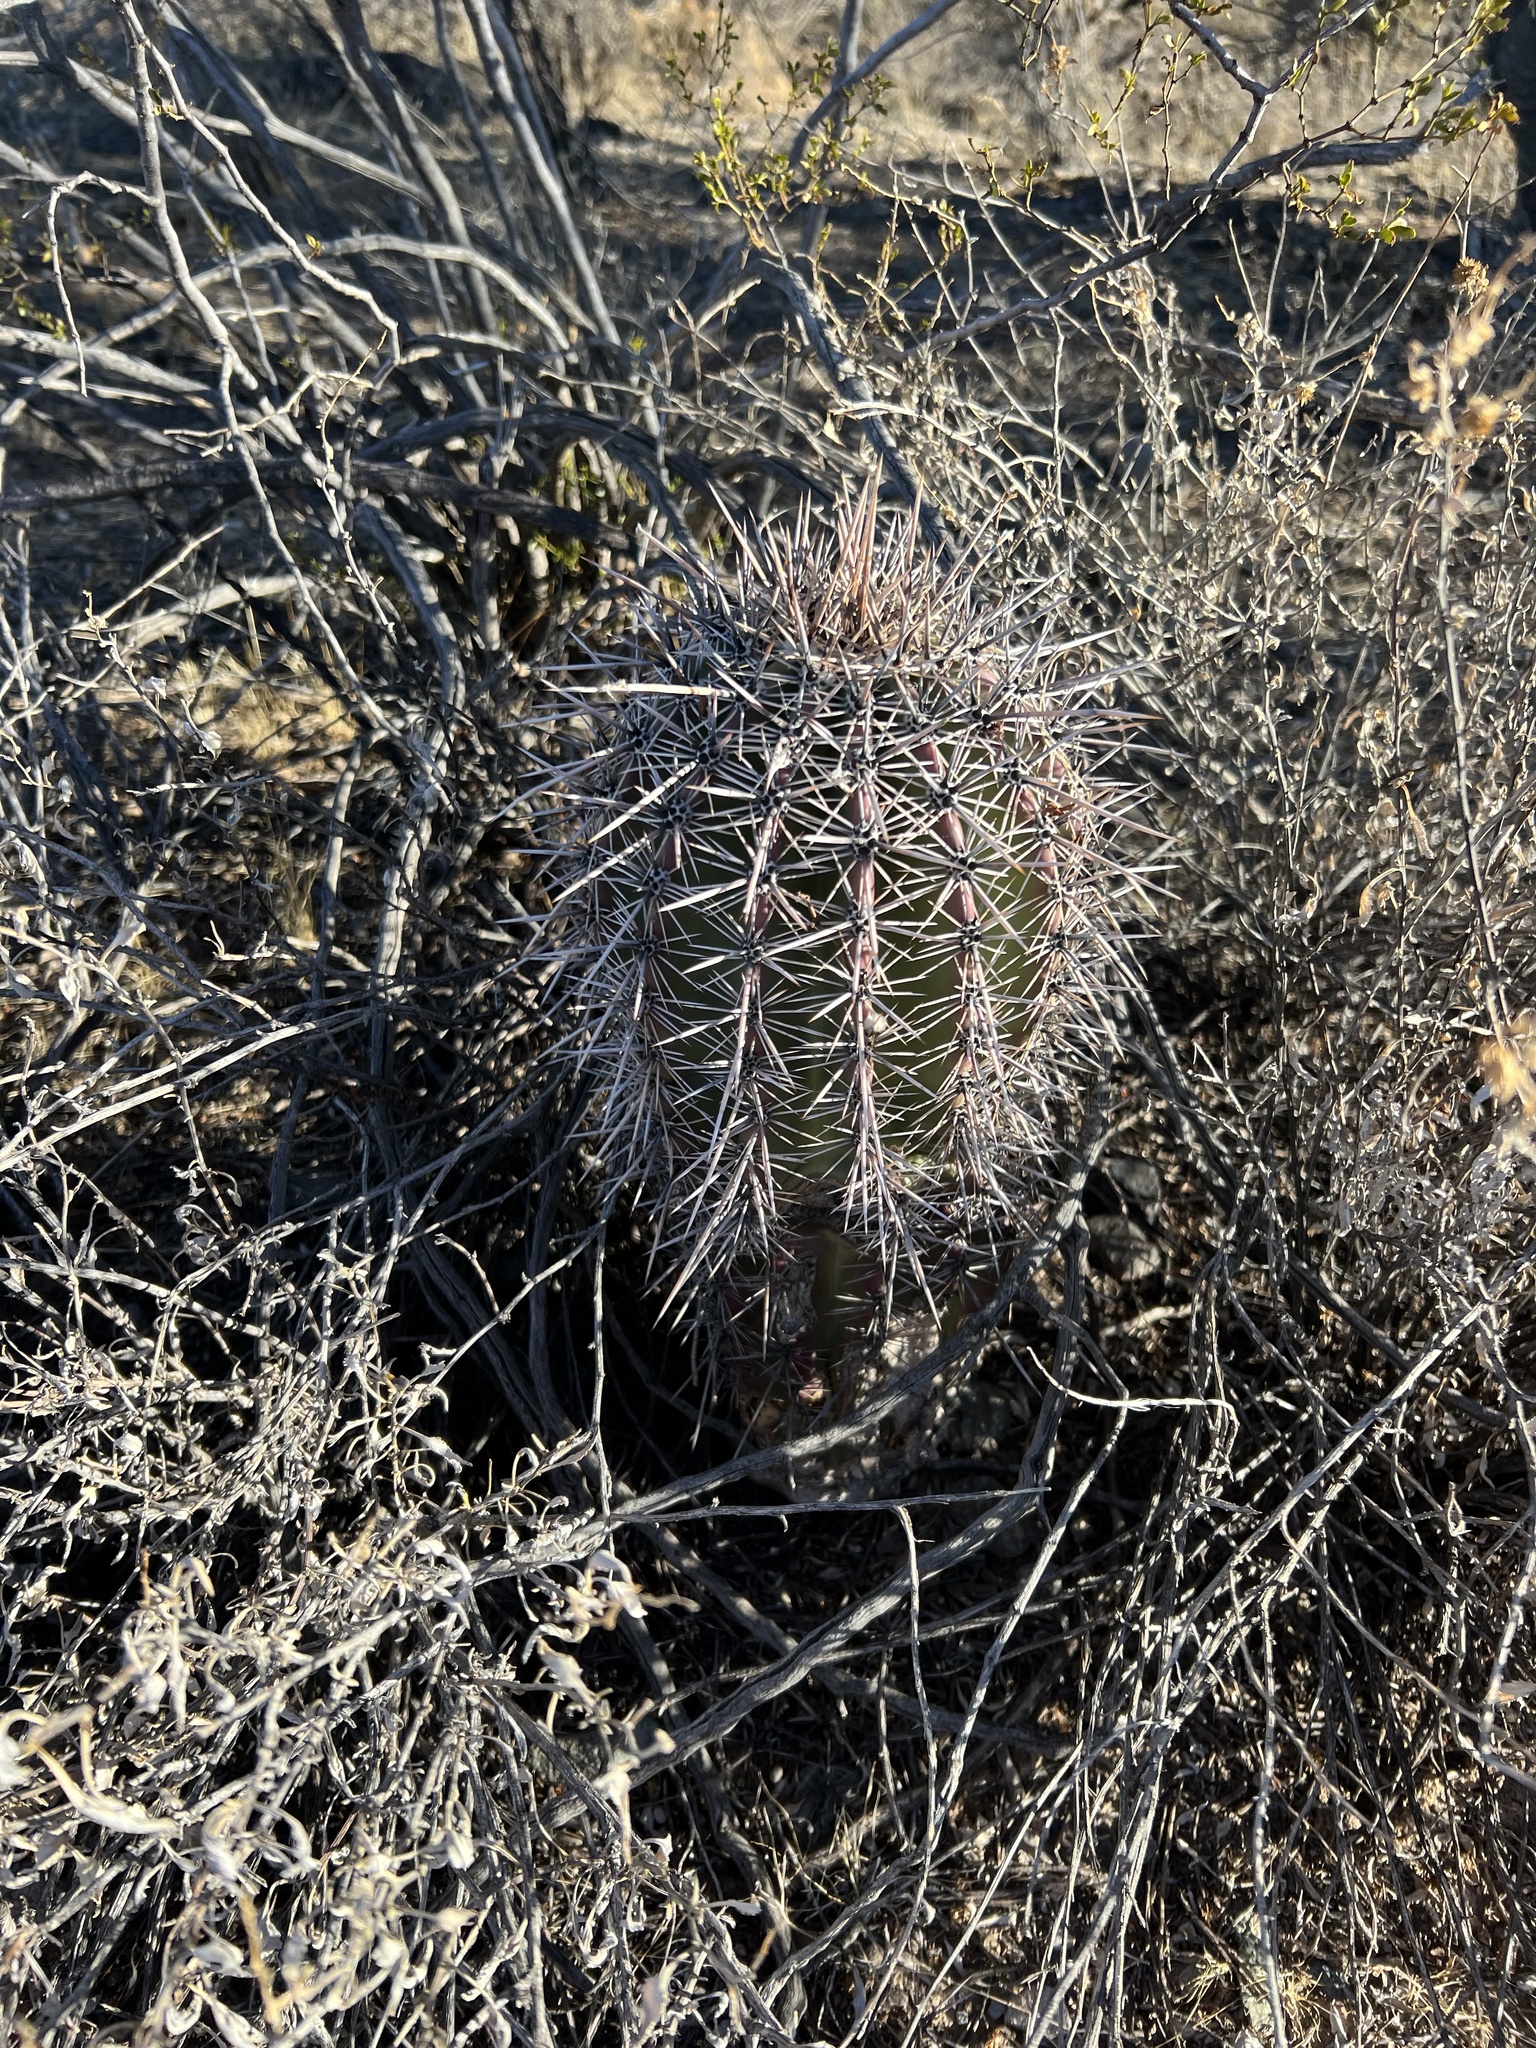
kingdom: Plantae
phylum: Tracheophyta
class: Magnoliopsida
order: Caryophyllales
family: Cactaceae
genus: Carnegiea
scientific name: Carnegiea gigantea
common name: Saguaro
